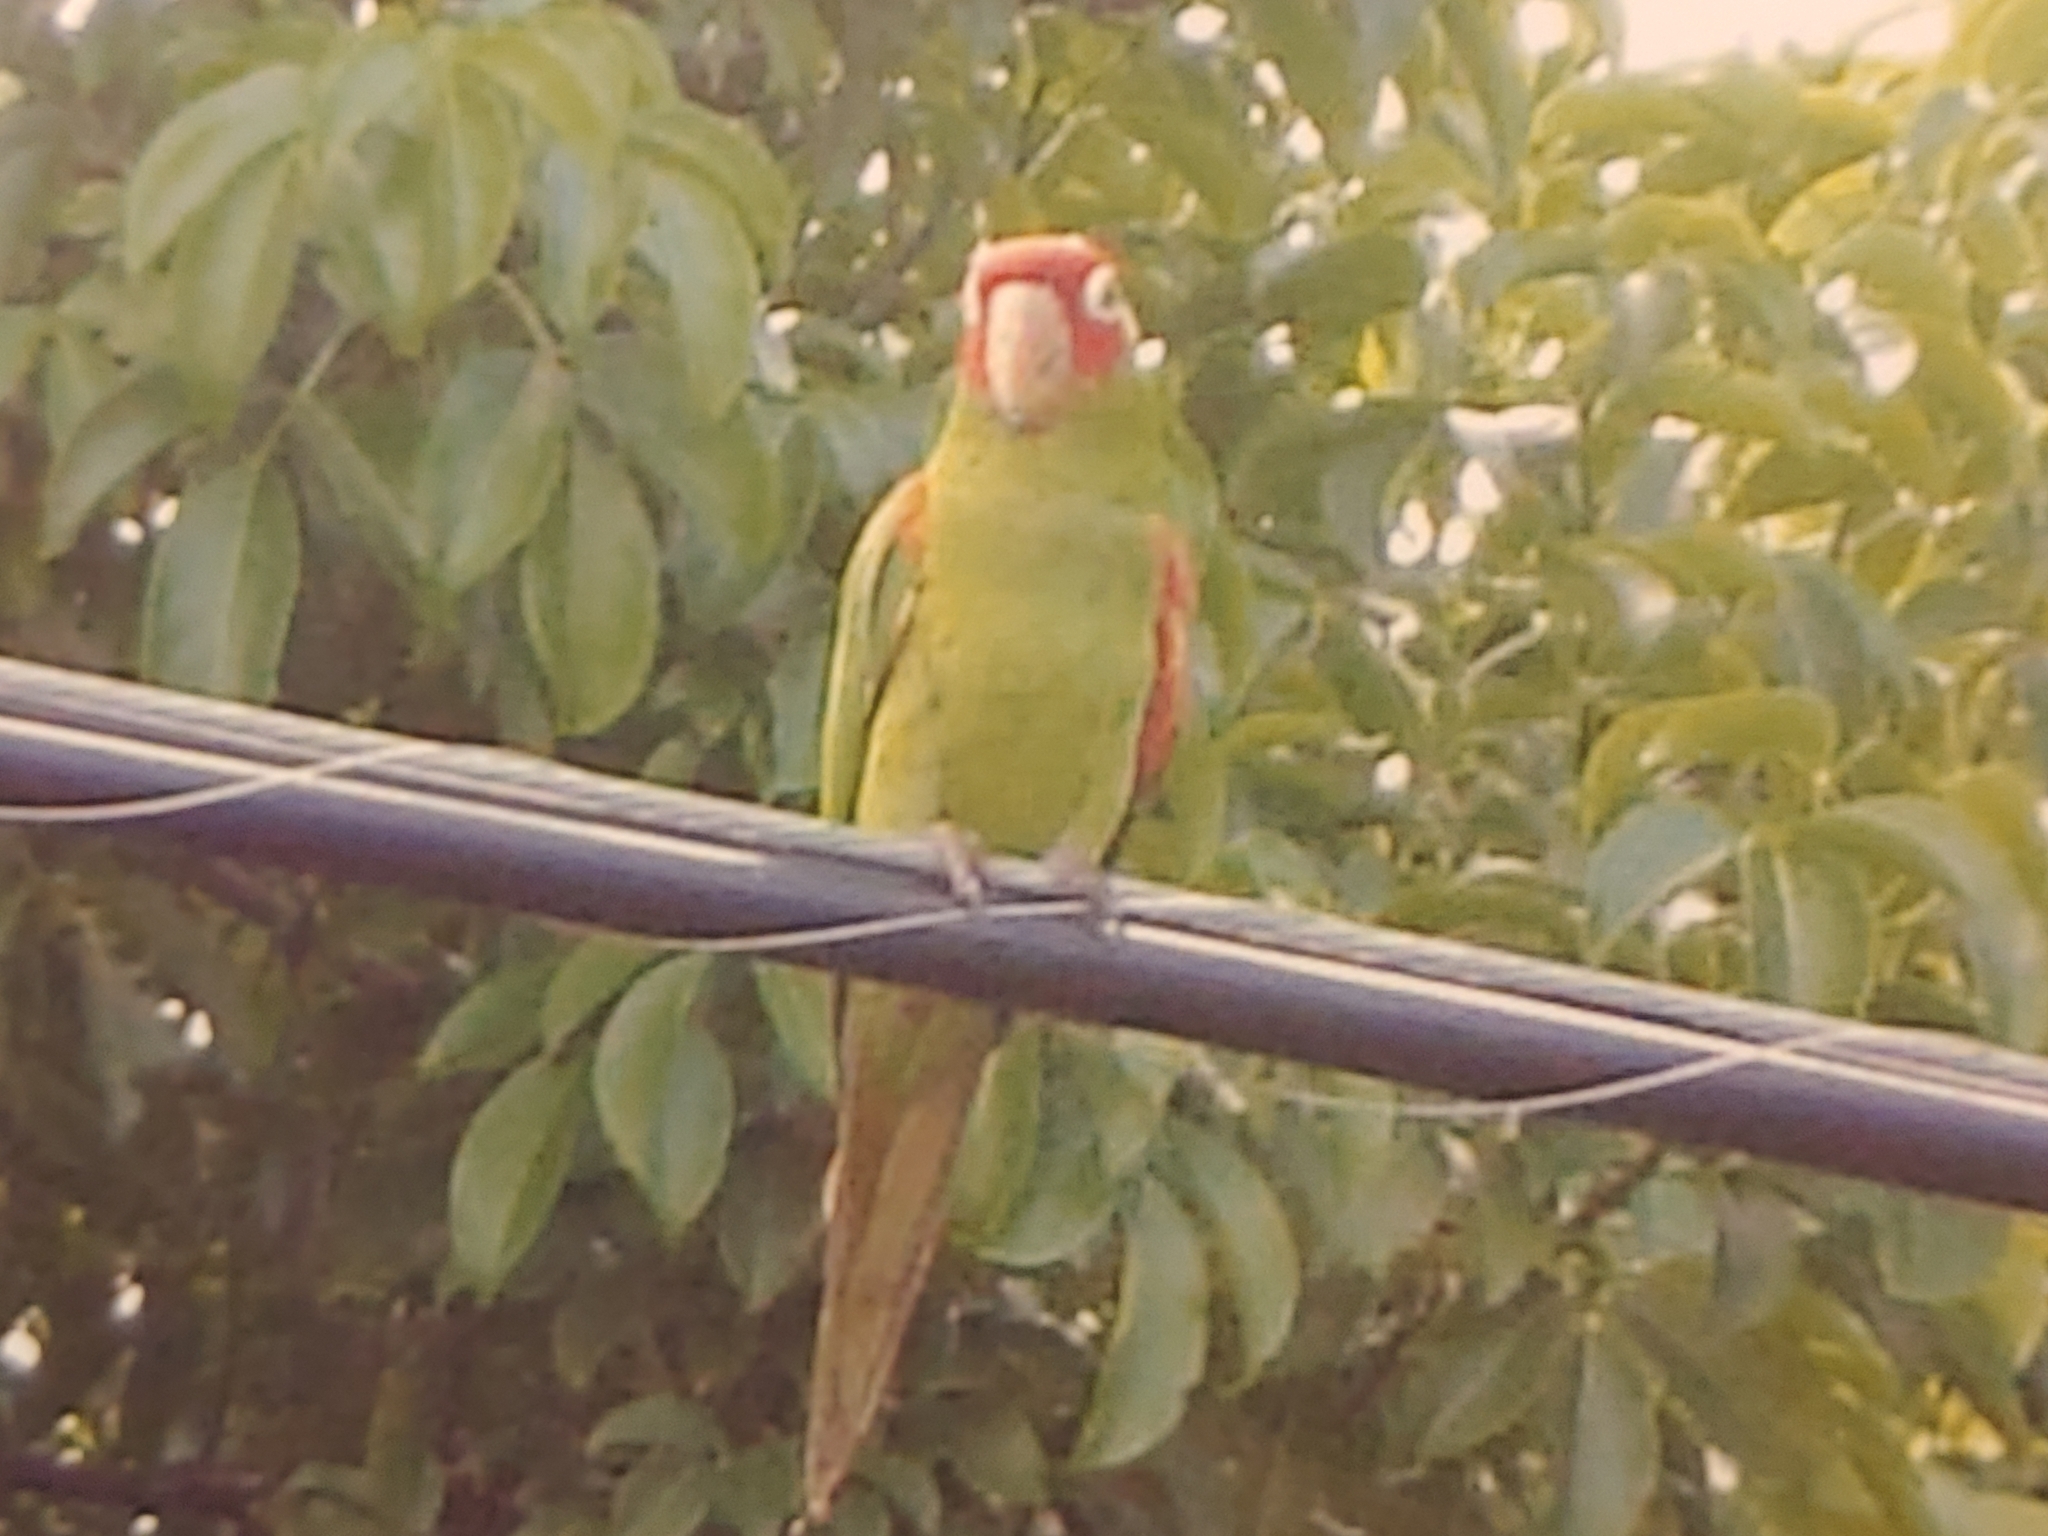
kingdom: Animalia
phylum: Chordata
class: Aves
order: Psittaciformes
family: Psittacidae
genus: Aratinga
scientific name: Aratinga erythrogenys
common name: Red-masked parakeet
